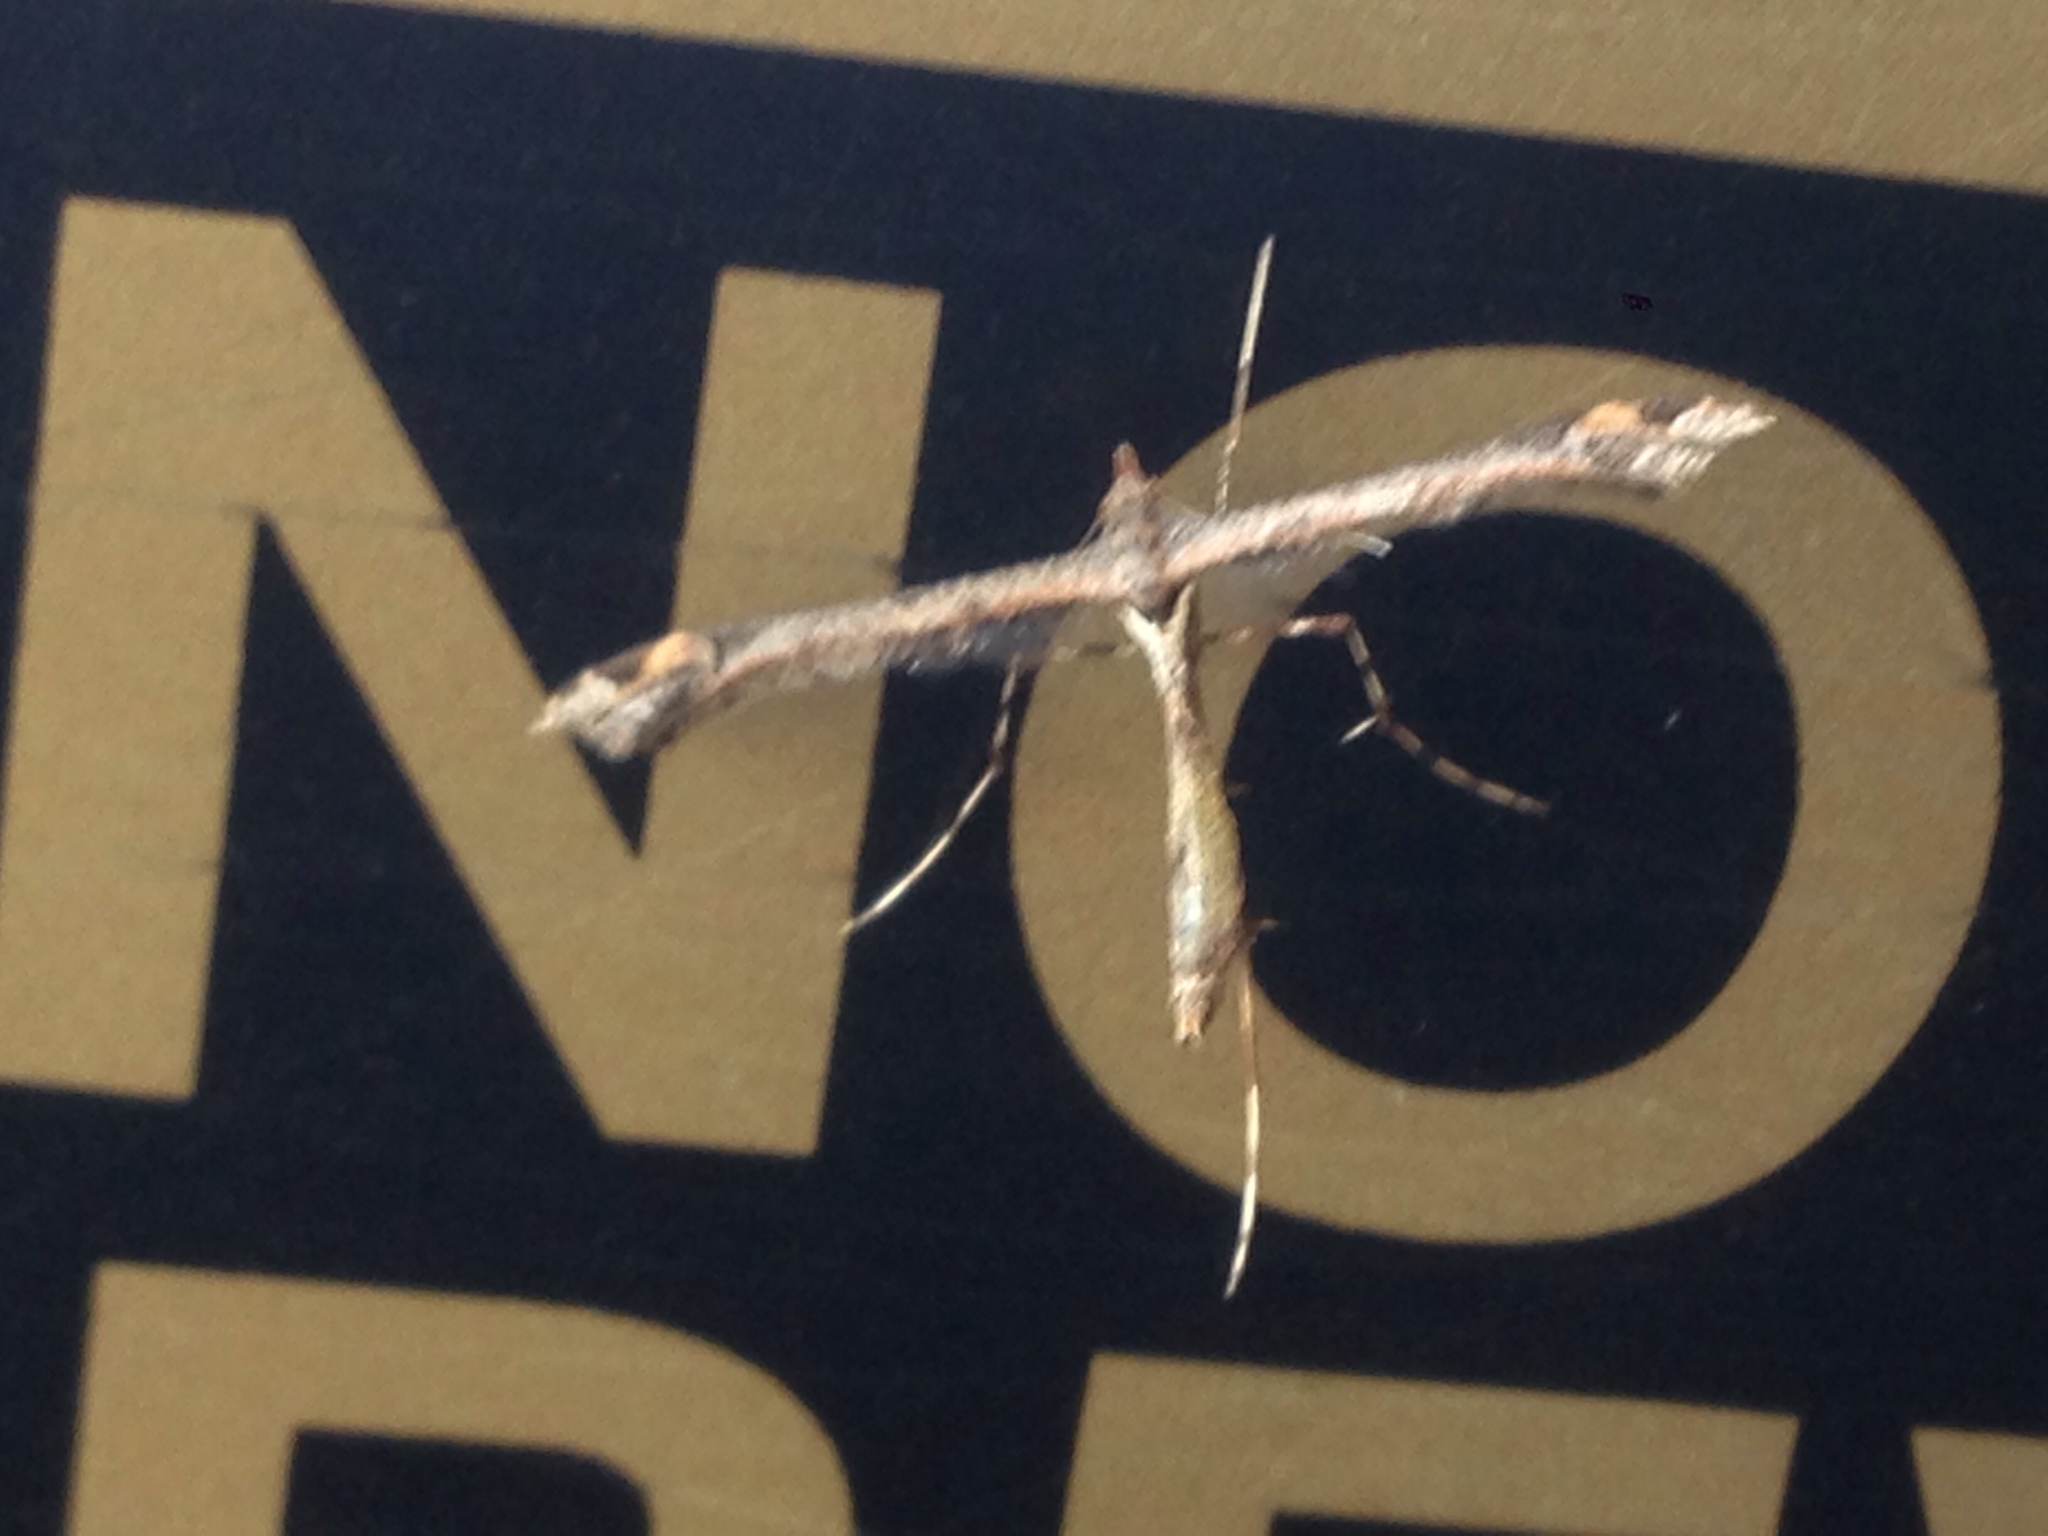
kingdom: Animalia
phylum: Arthropoda
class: Insecta
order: Lepidoptera
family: Pterophoridae
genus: Anstenoptilia
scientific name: Anstenoptilia marmarodactyla
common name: Moth
